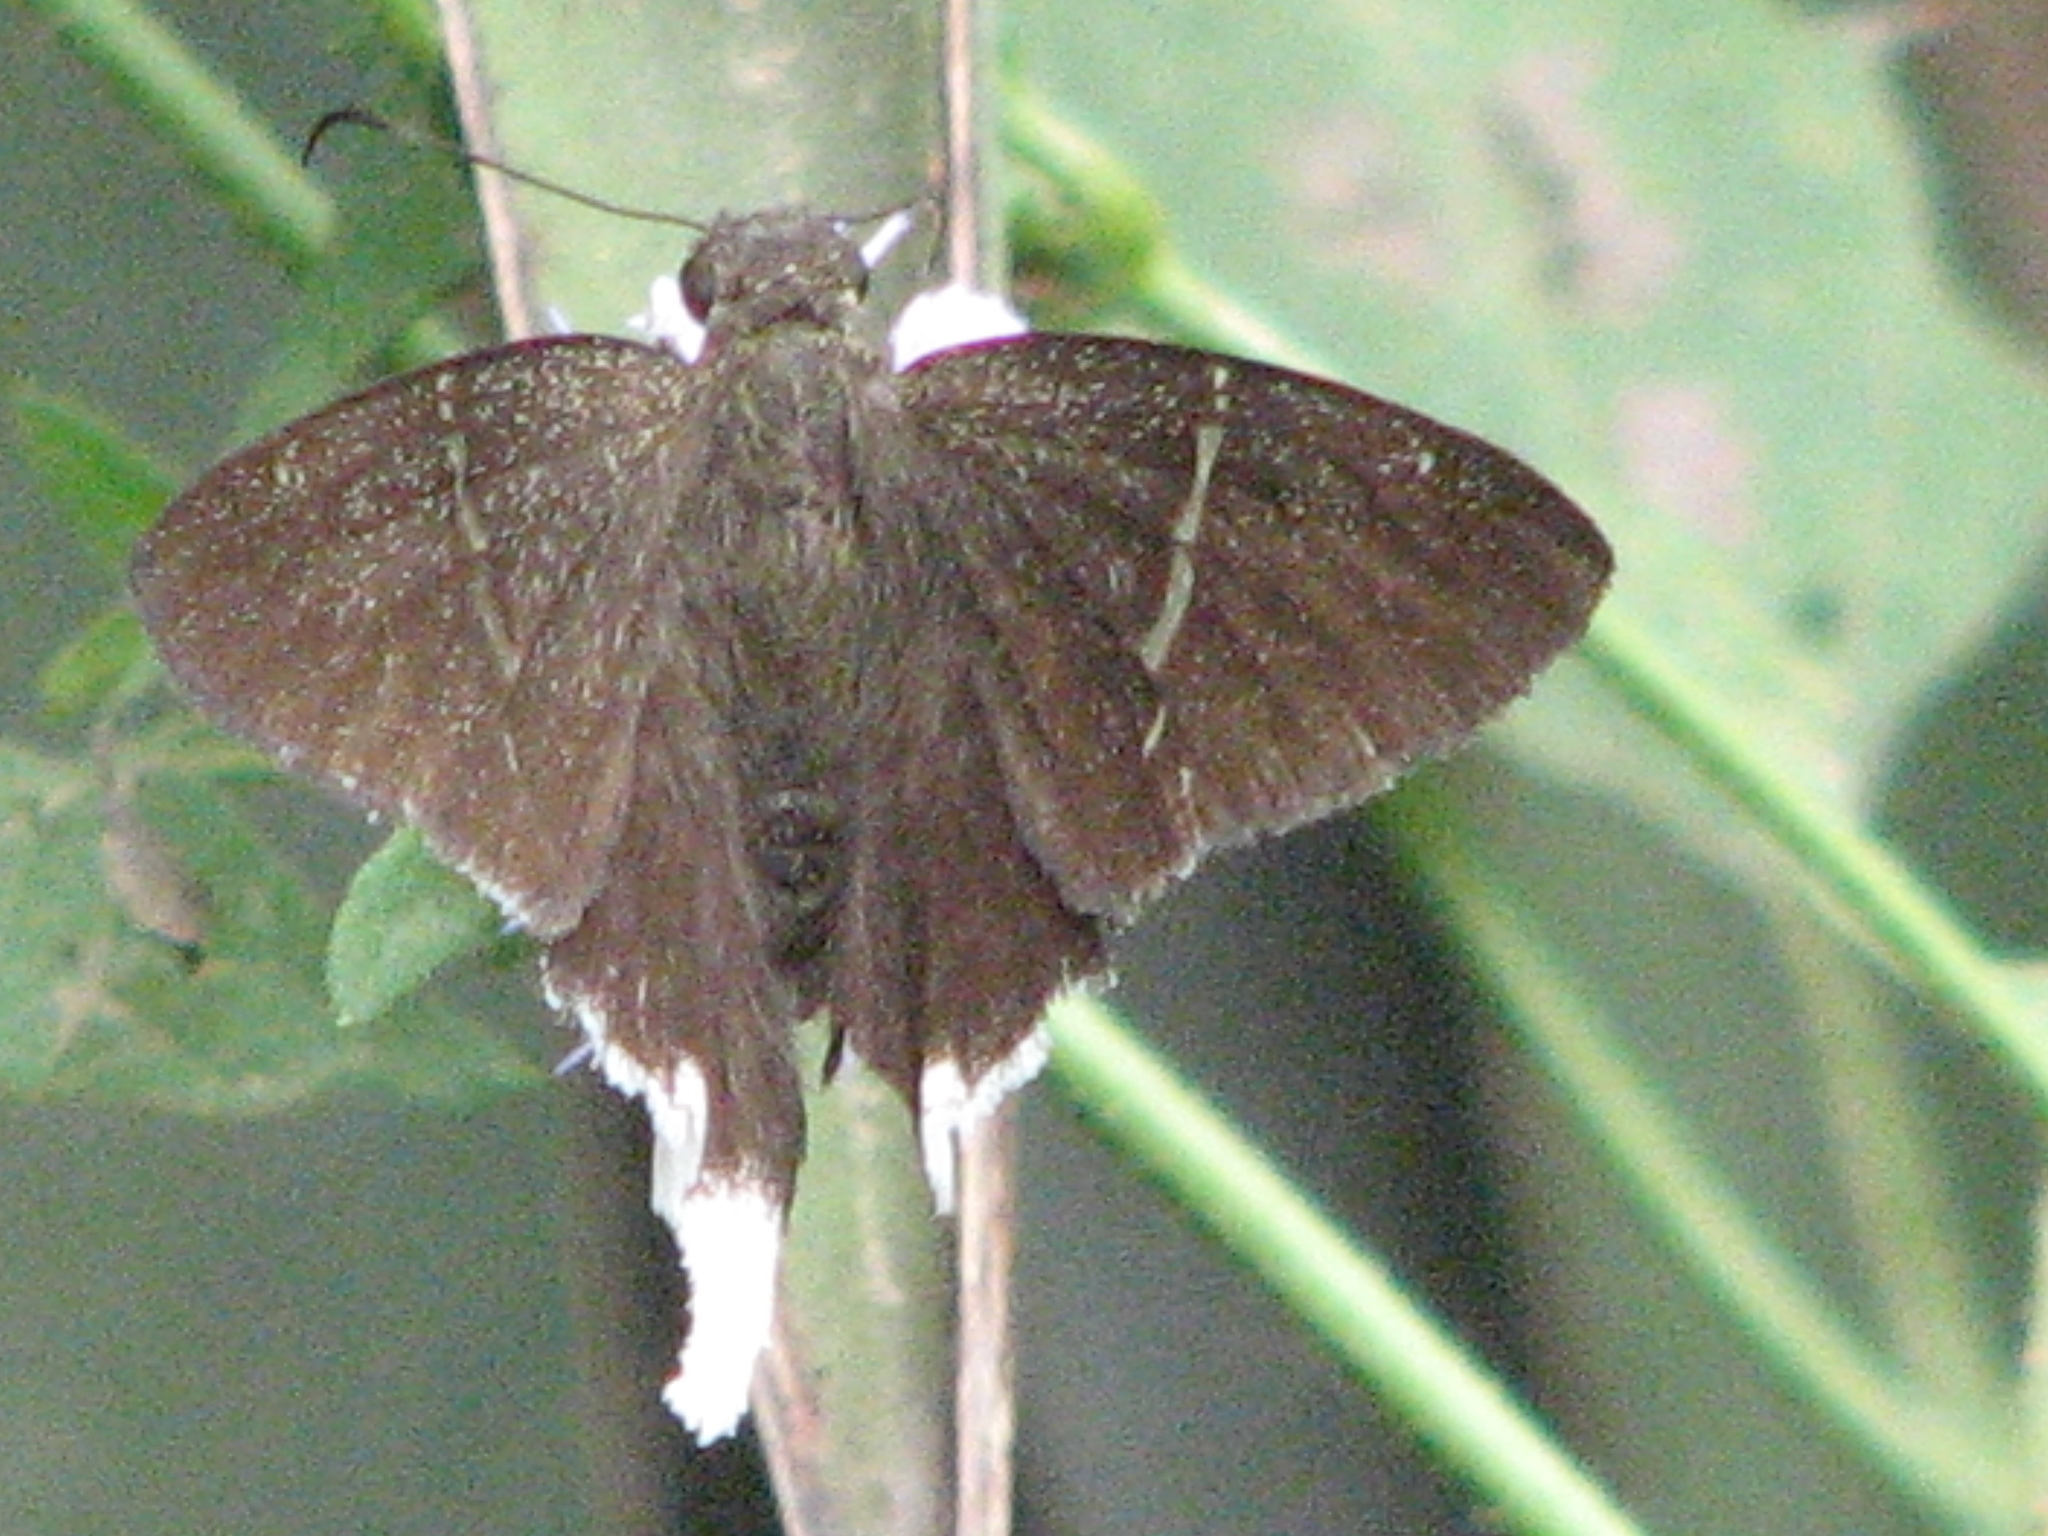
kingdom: Animalia
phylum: Arthropoda
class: Insecta
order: Lepidoptera
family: Hesperiidae
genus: Achalarus
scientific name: Achalarus
